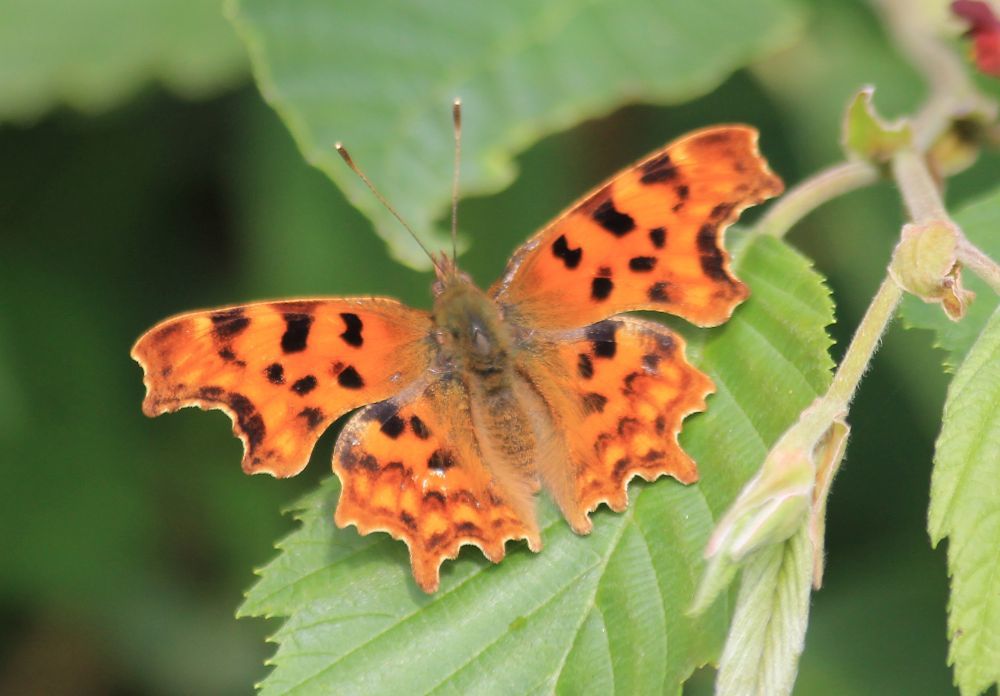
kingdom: Animalia
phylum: Arthropoda
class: Insecta
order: Lepidoptera
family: Nymphalidae
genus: Polygonia
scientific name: Polygonia c-album
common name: Comma
